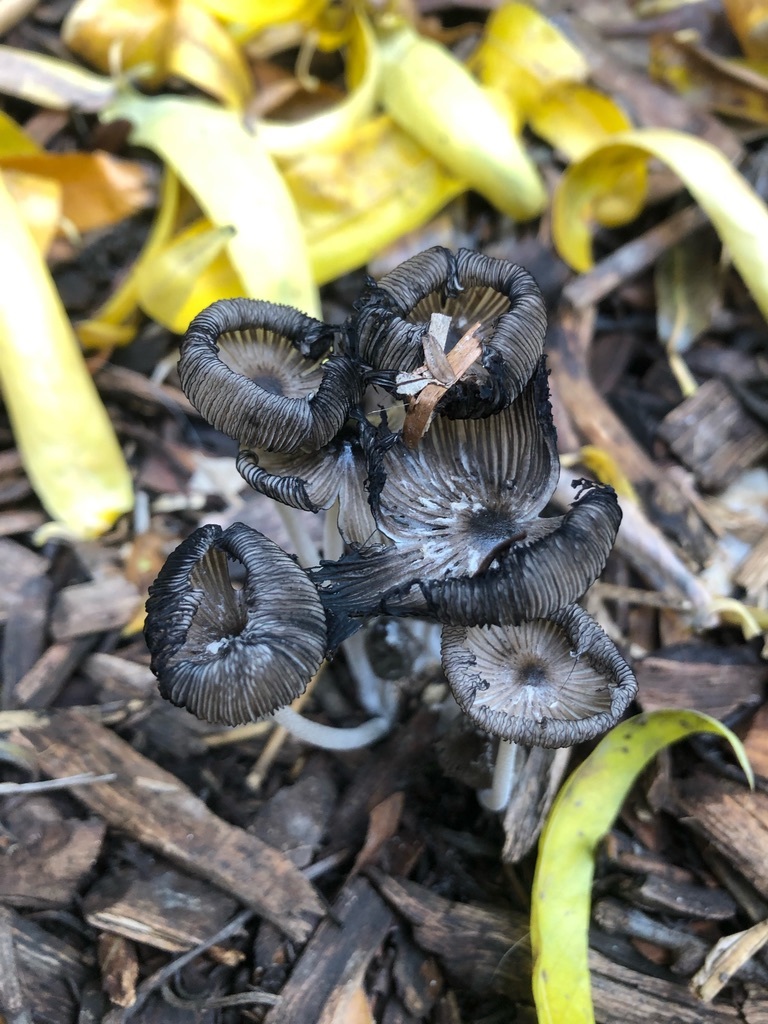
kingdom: Fungi
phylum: Basidiomycota
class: Agaricomycetes
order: Agaricales
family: Psathyrellaceae
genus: Coprinopsis
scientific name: Coprinopsis lagopus
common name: Hare'sfoot inkcap
